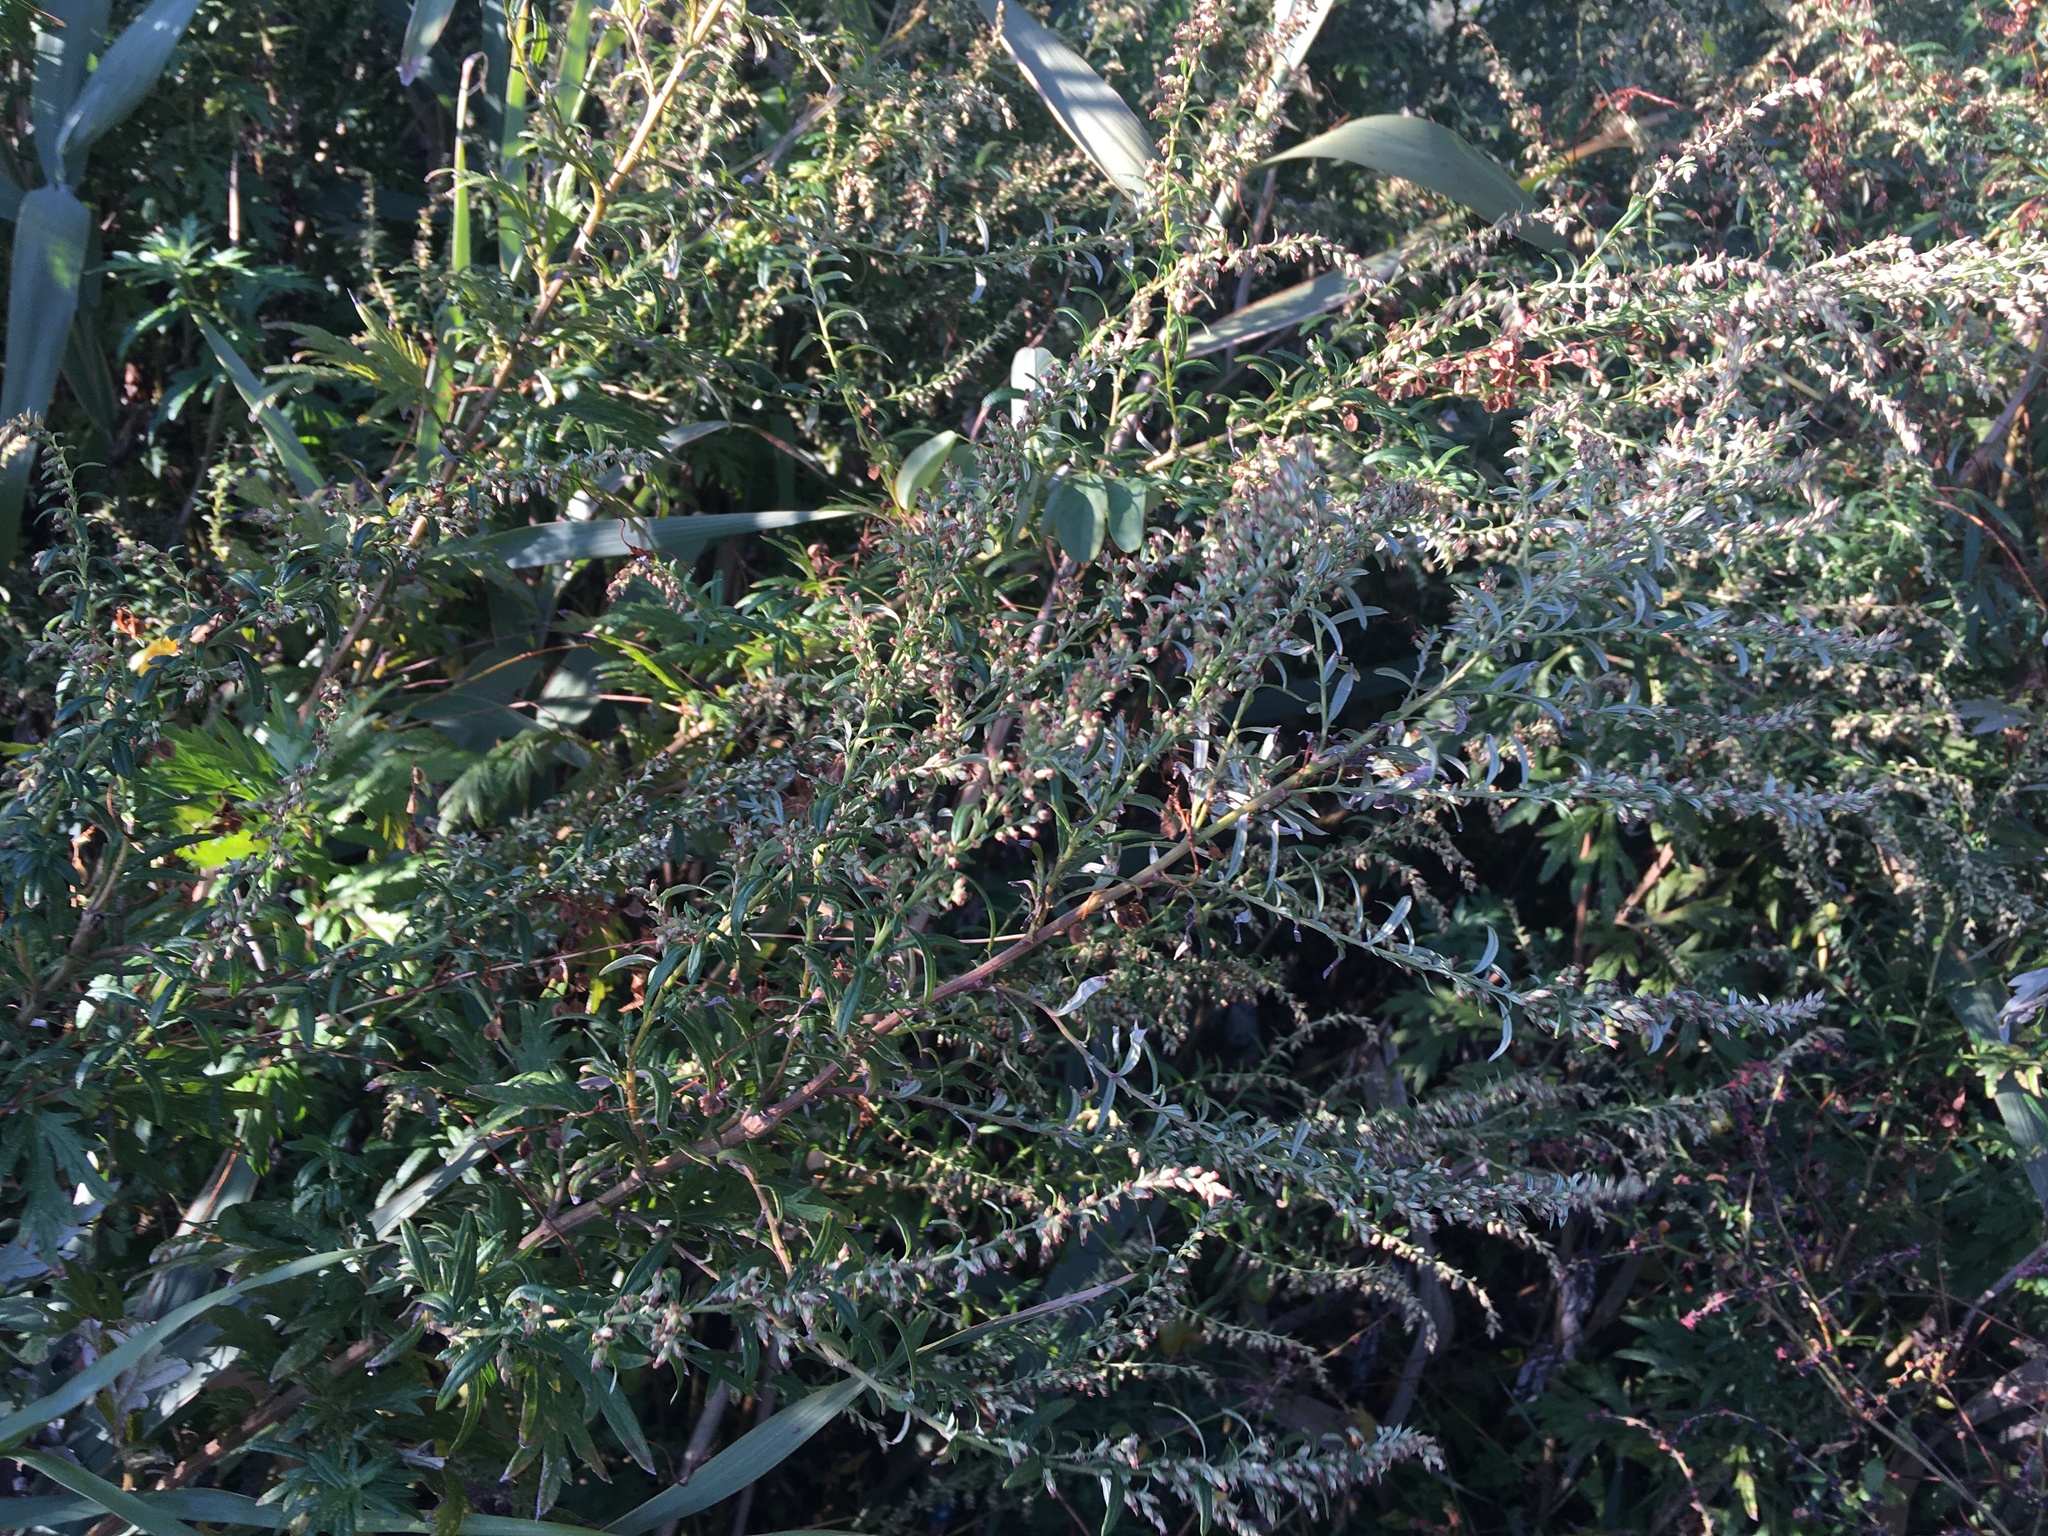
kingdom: Plantae
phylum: Tracheophyta
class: Magnoliopsida
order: Asterales
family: Asteraceae
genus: Artemisia
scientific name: Artemisia vulgaris
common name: Mugwort
